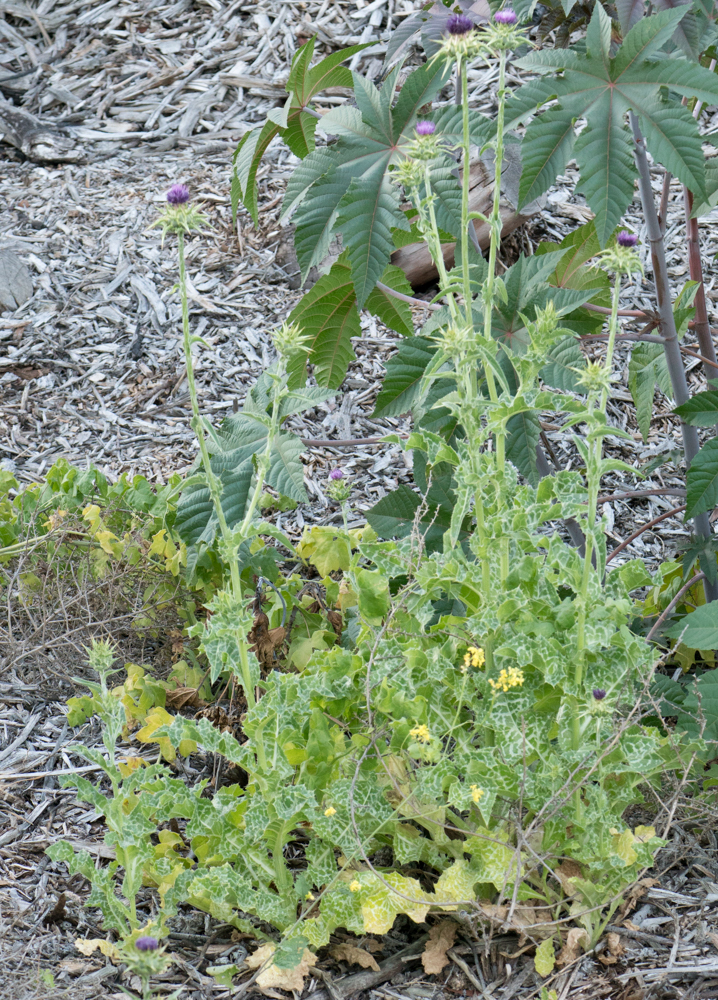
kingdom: Plantae
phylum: Tracheophyta
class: Magnoliopsida
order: Asterales
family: Asteraceae
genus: Silybum
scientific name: Silybum marianum
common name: Milk thistle
